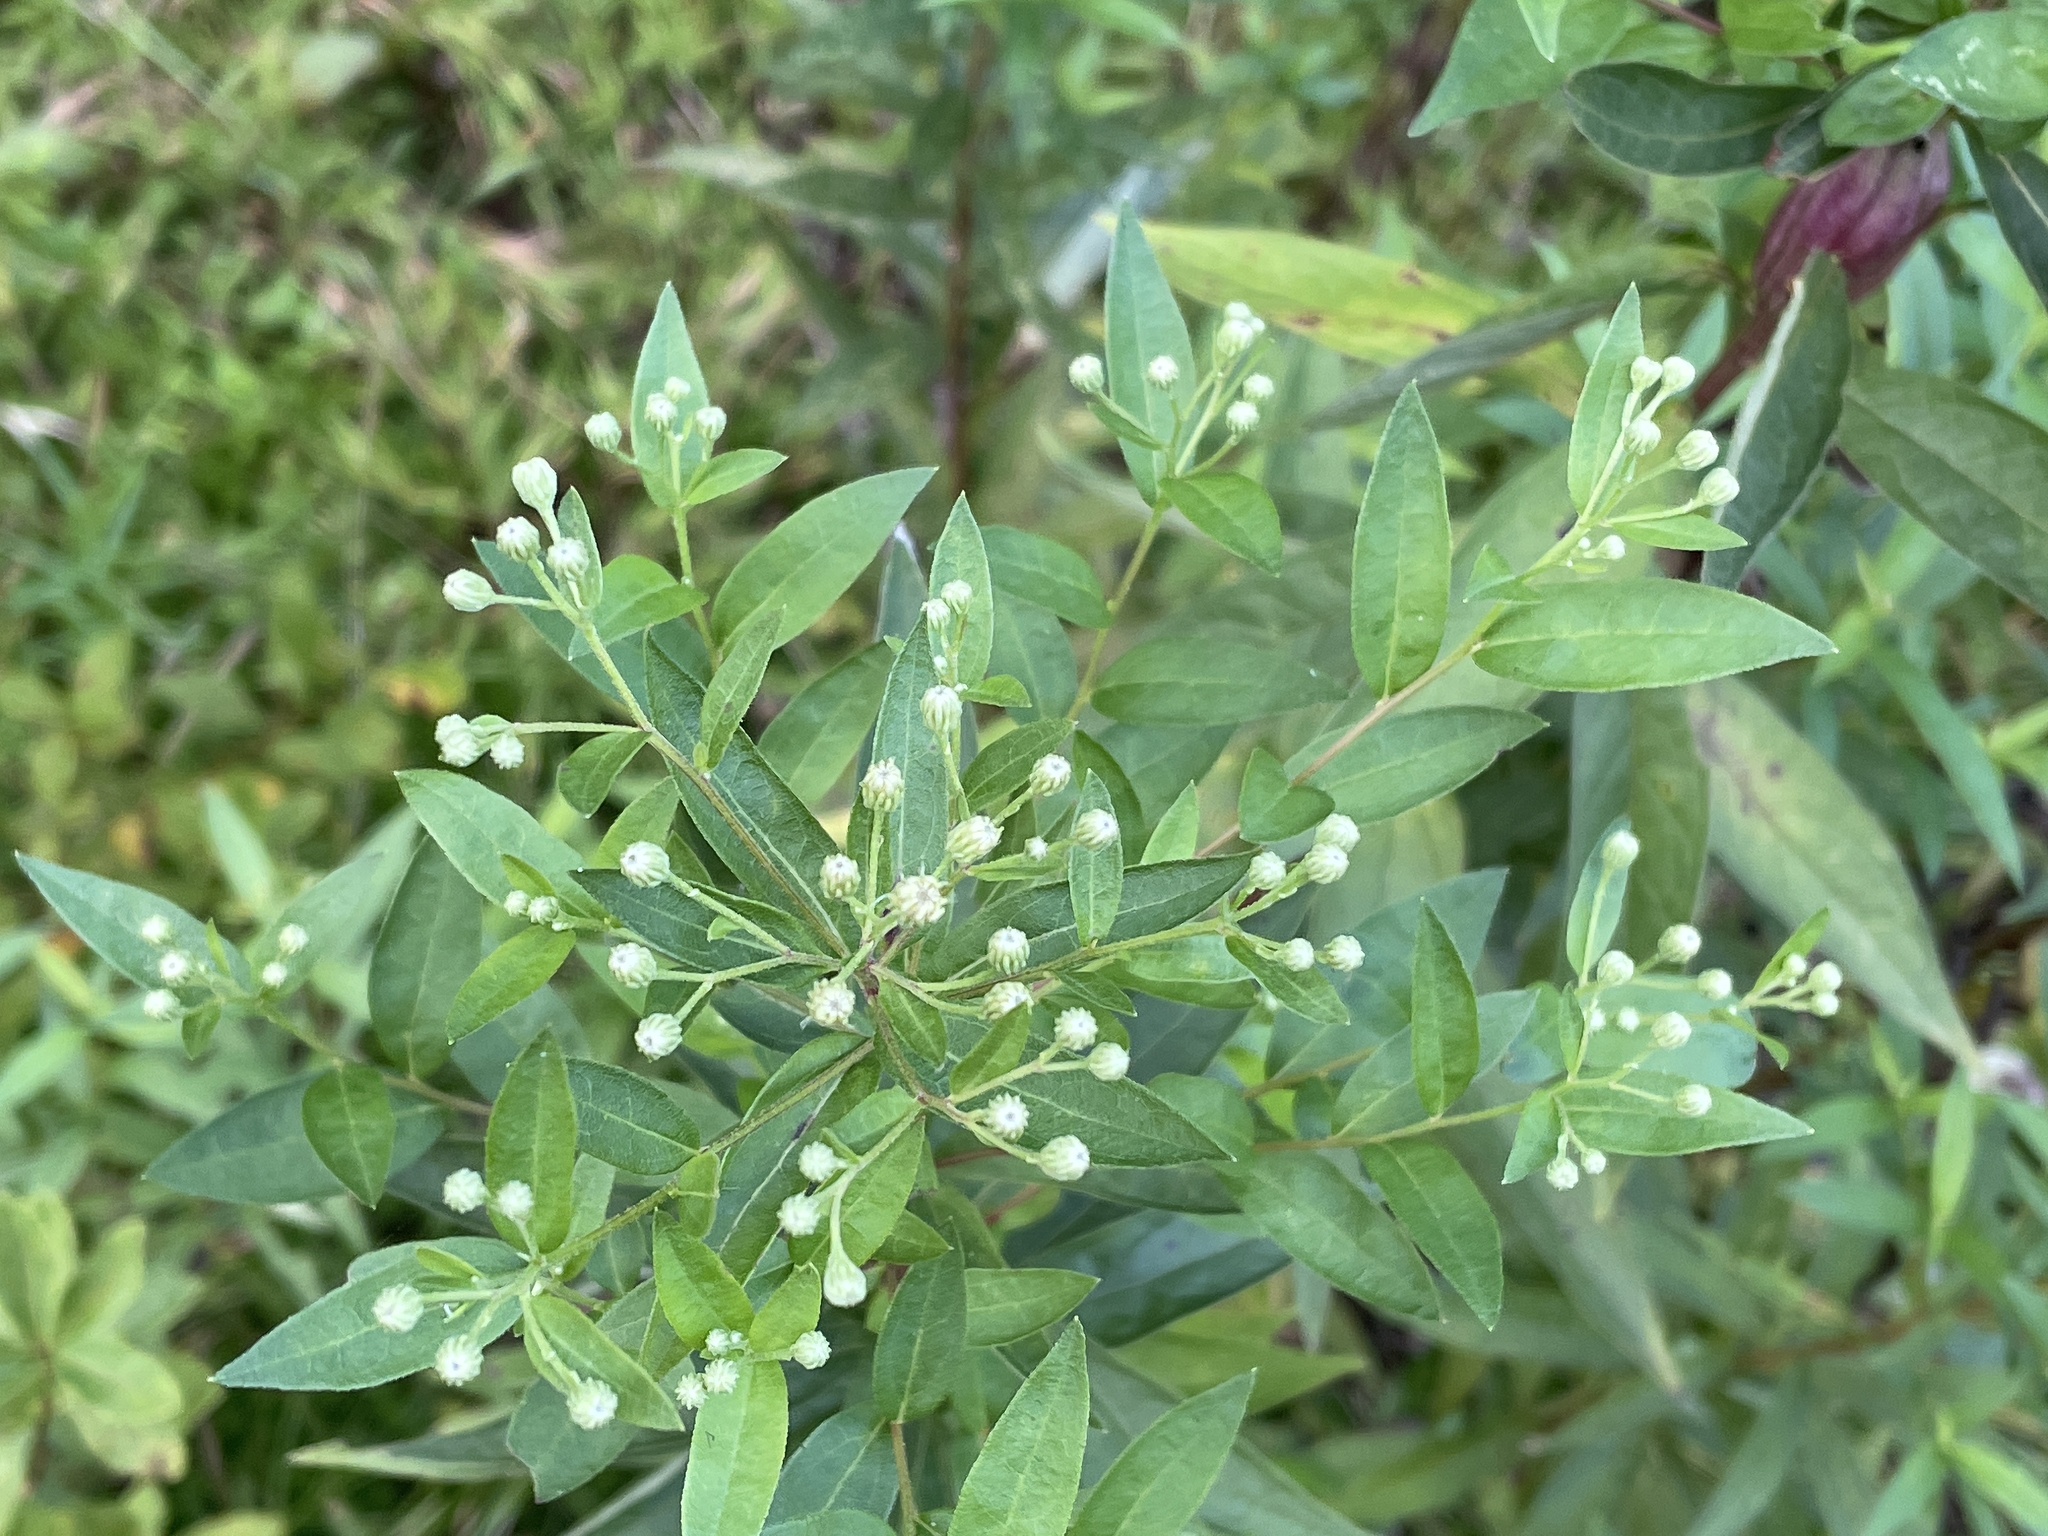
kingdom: Plantae
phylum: Tracheophyta
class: Magnoliopsida
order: Asterales
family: Asteraceae
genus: Doellingeria
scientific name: Doellingeria umbellata
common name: Flat-top white aster
